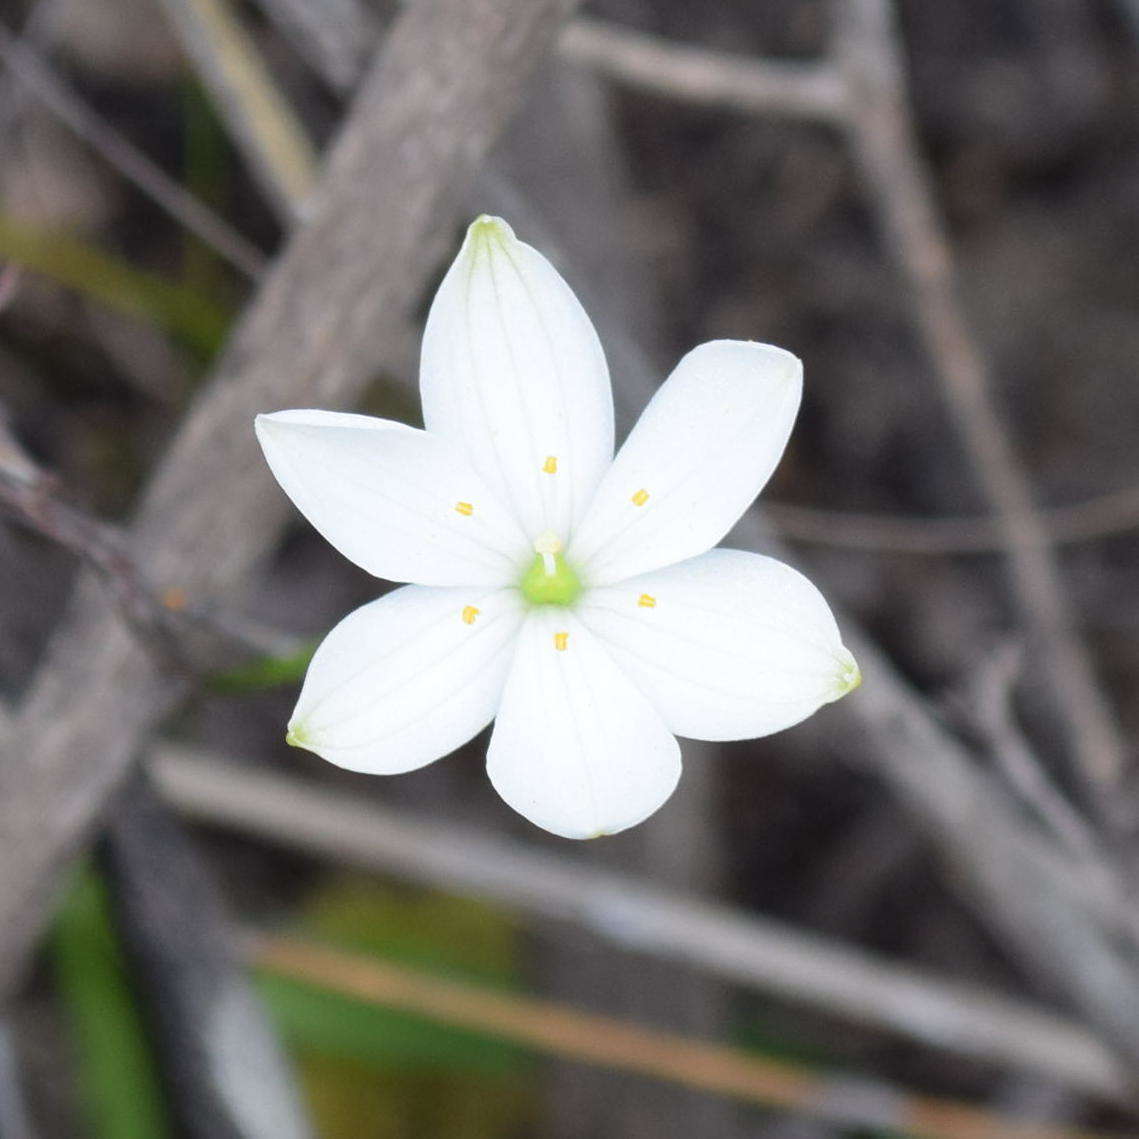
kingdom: Plantae
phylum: Tracheophyta
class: Liliopsida
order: Asparagales
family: Asphodelaceae
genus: Chamaescilla
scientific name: Chamaescilla corymbosa
